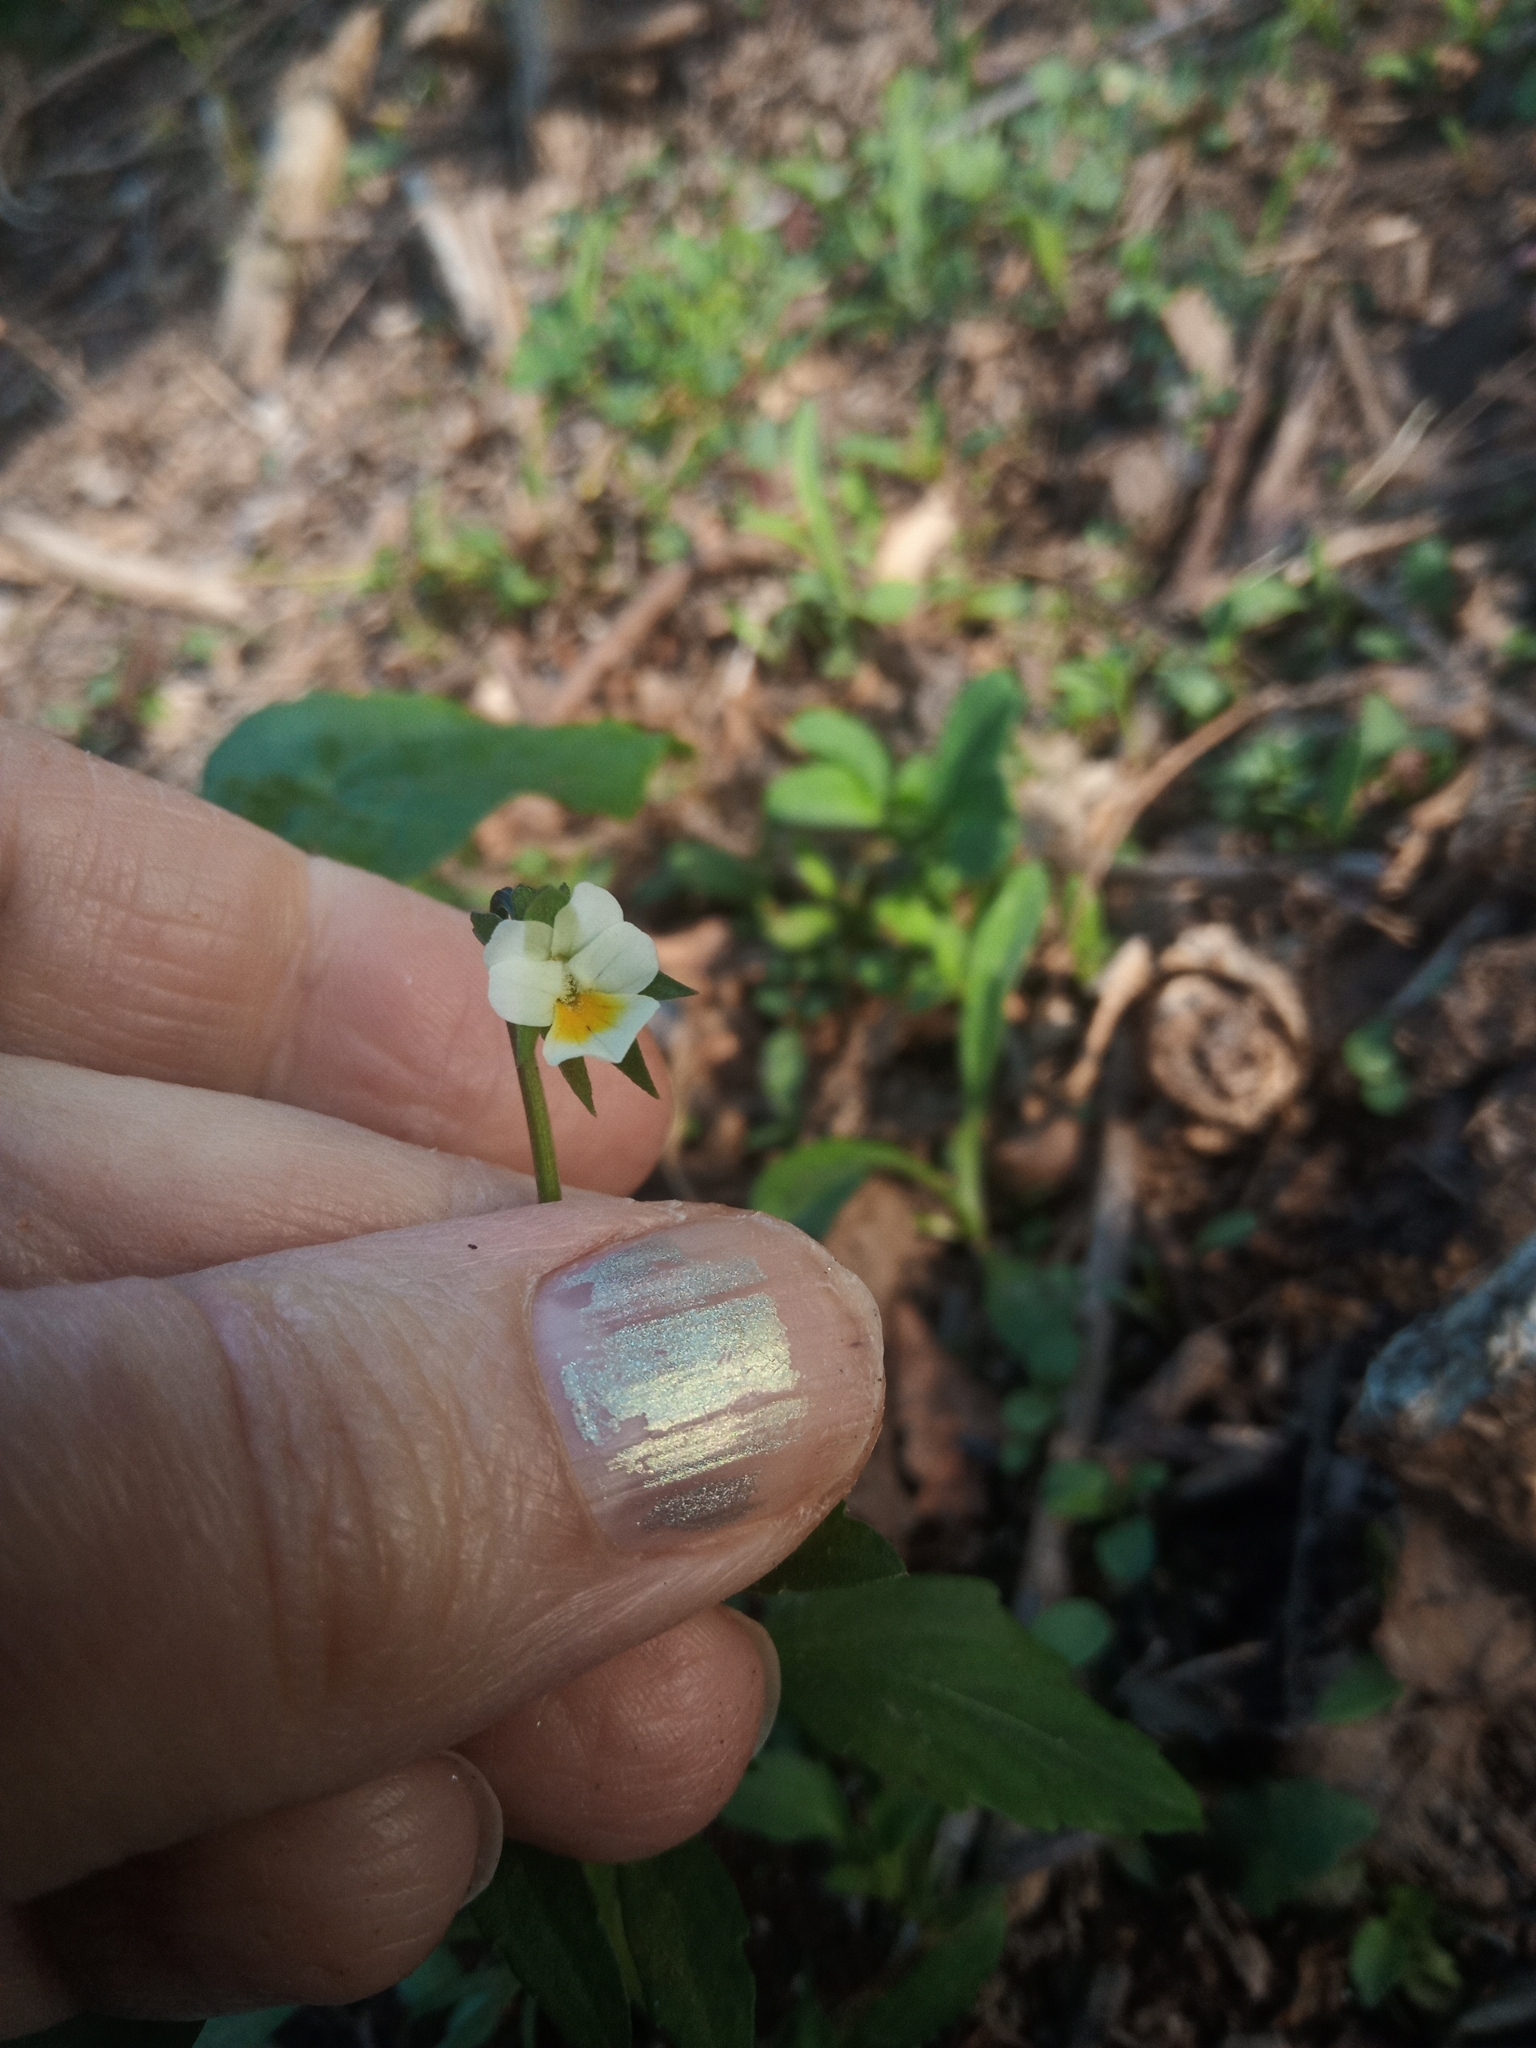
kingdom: Plantae
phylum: Tracheophyta
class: Magnoliopsida
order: Malpighiales
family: Violaceae
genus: Viola
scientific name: Viola arvensis
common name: Field pansy
